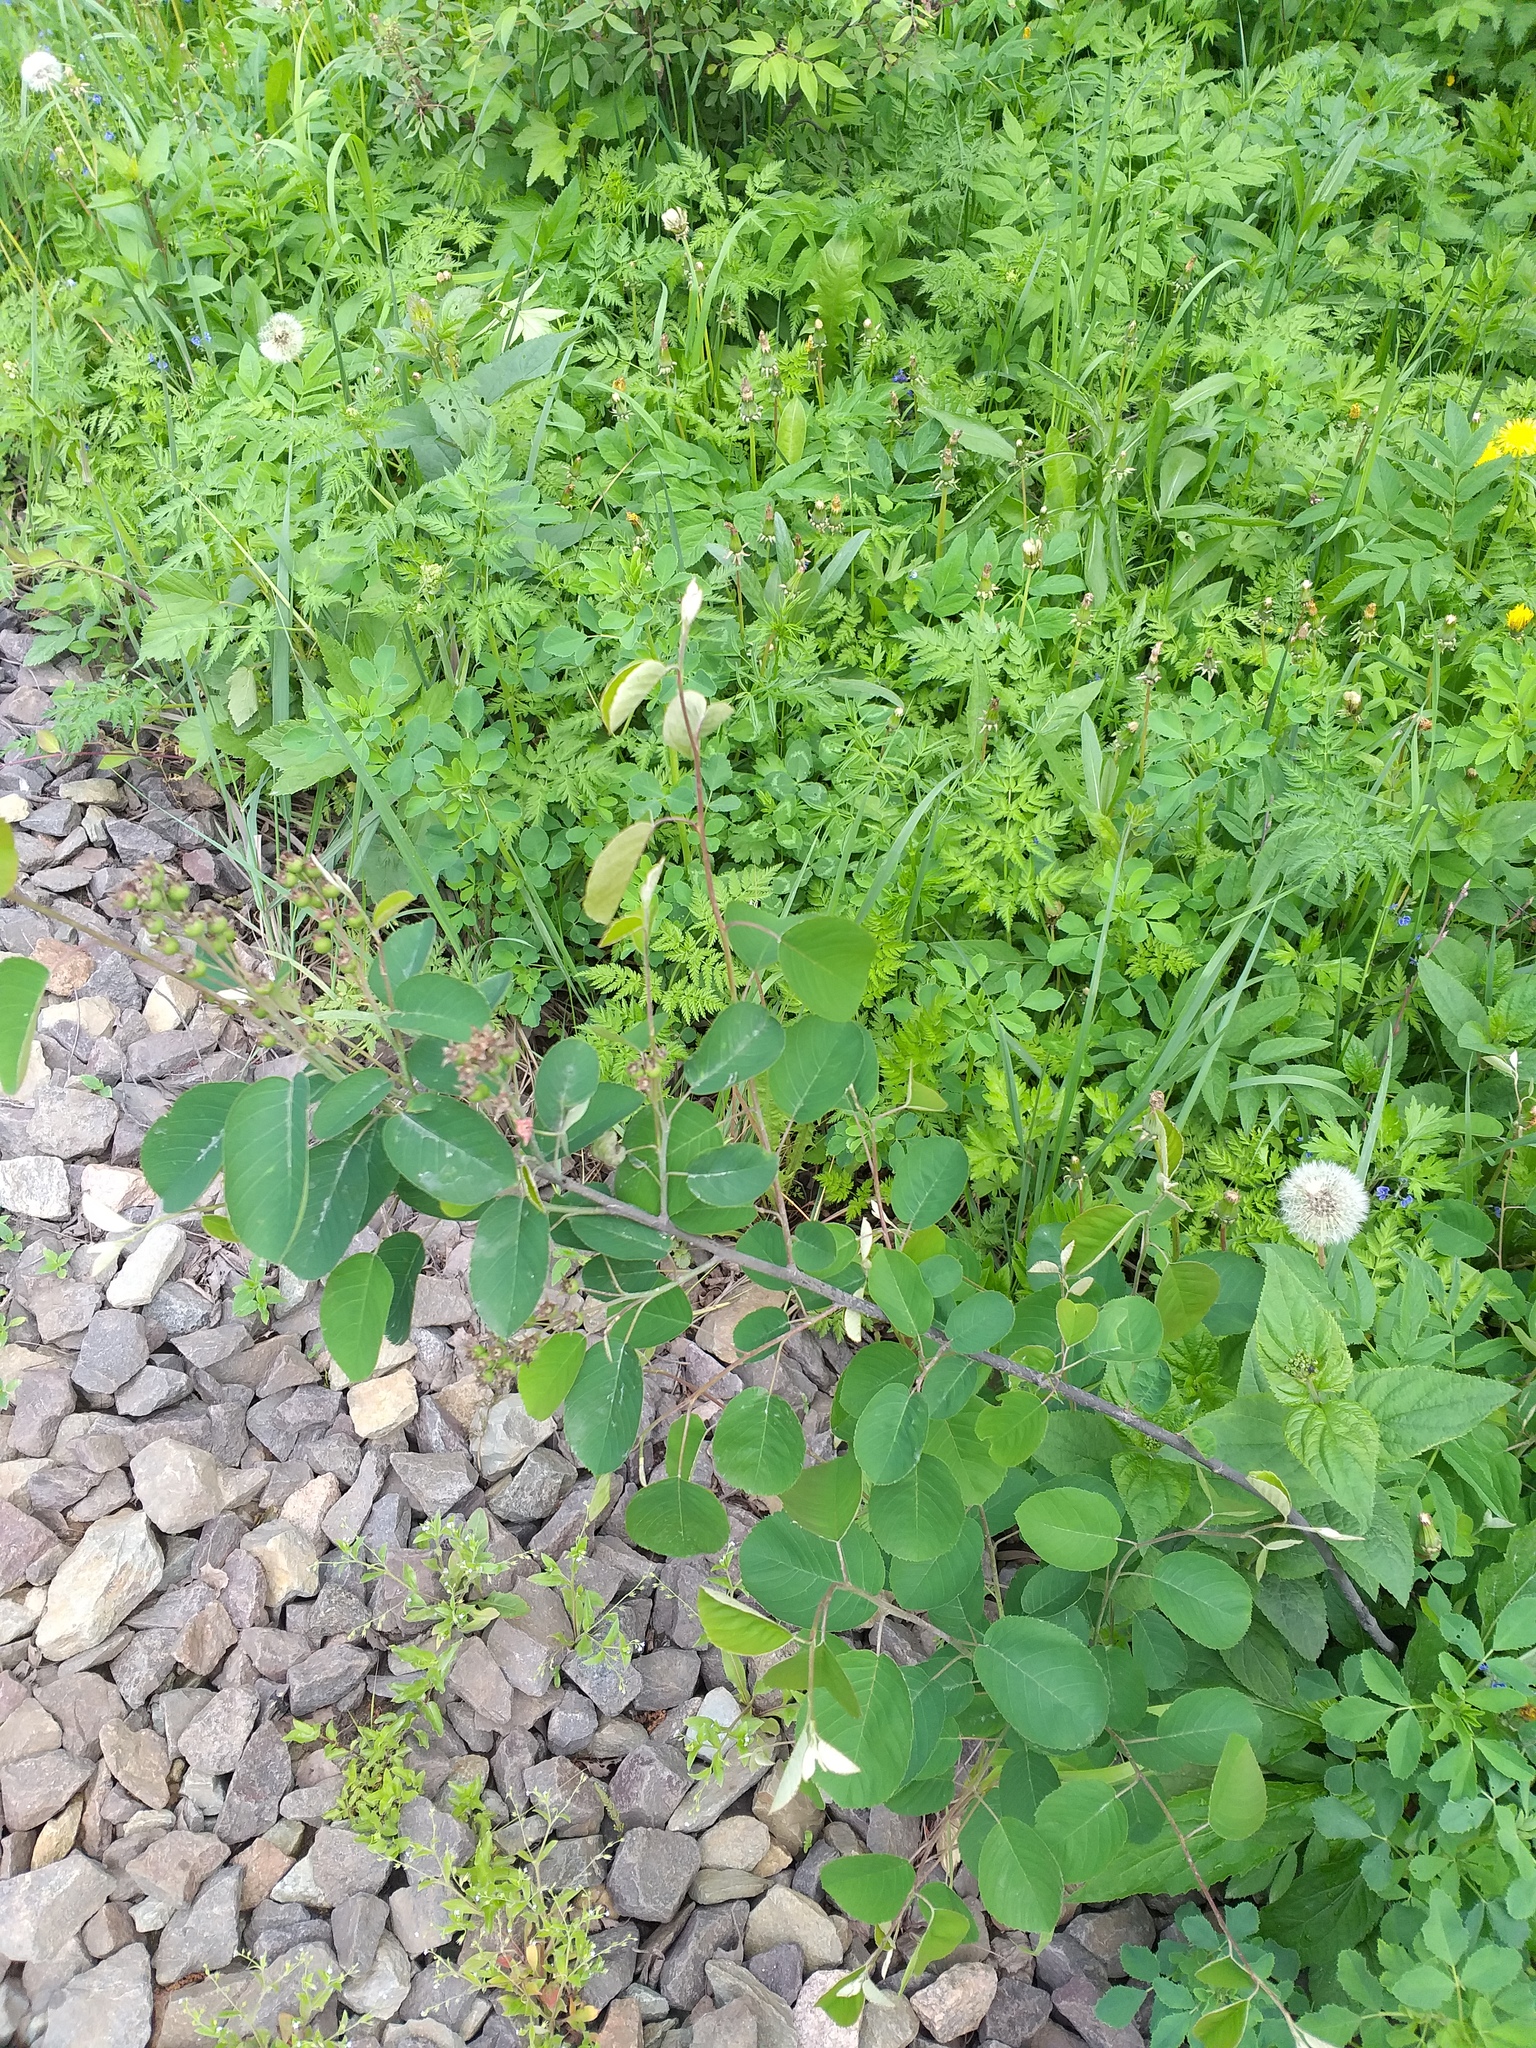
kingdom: Plantae
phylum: Tracheophyta
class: Magnoliopsida
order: Rosales
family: Rosaceae
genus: Amelanchier
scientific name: Amelanchier
